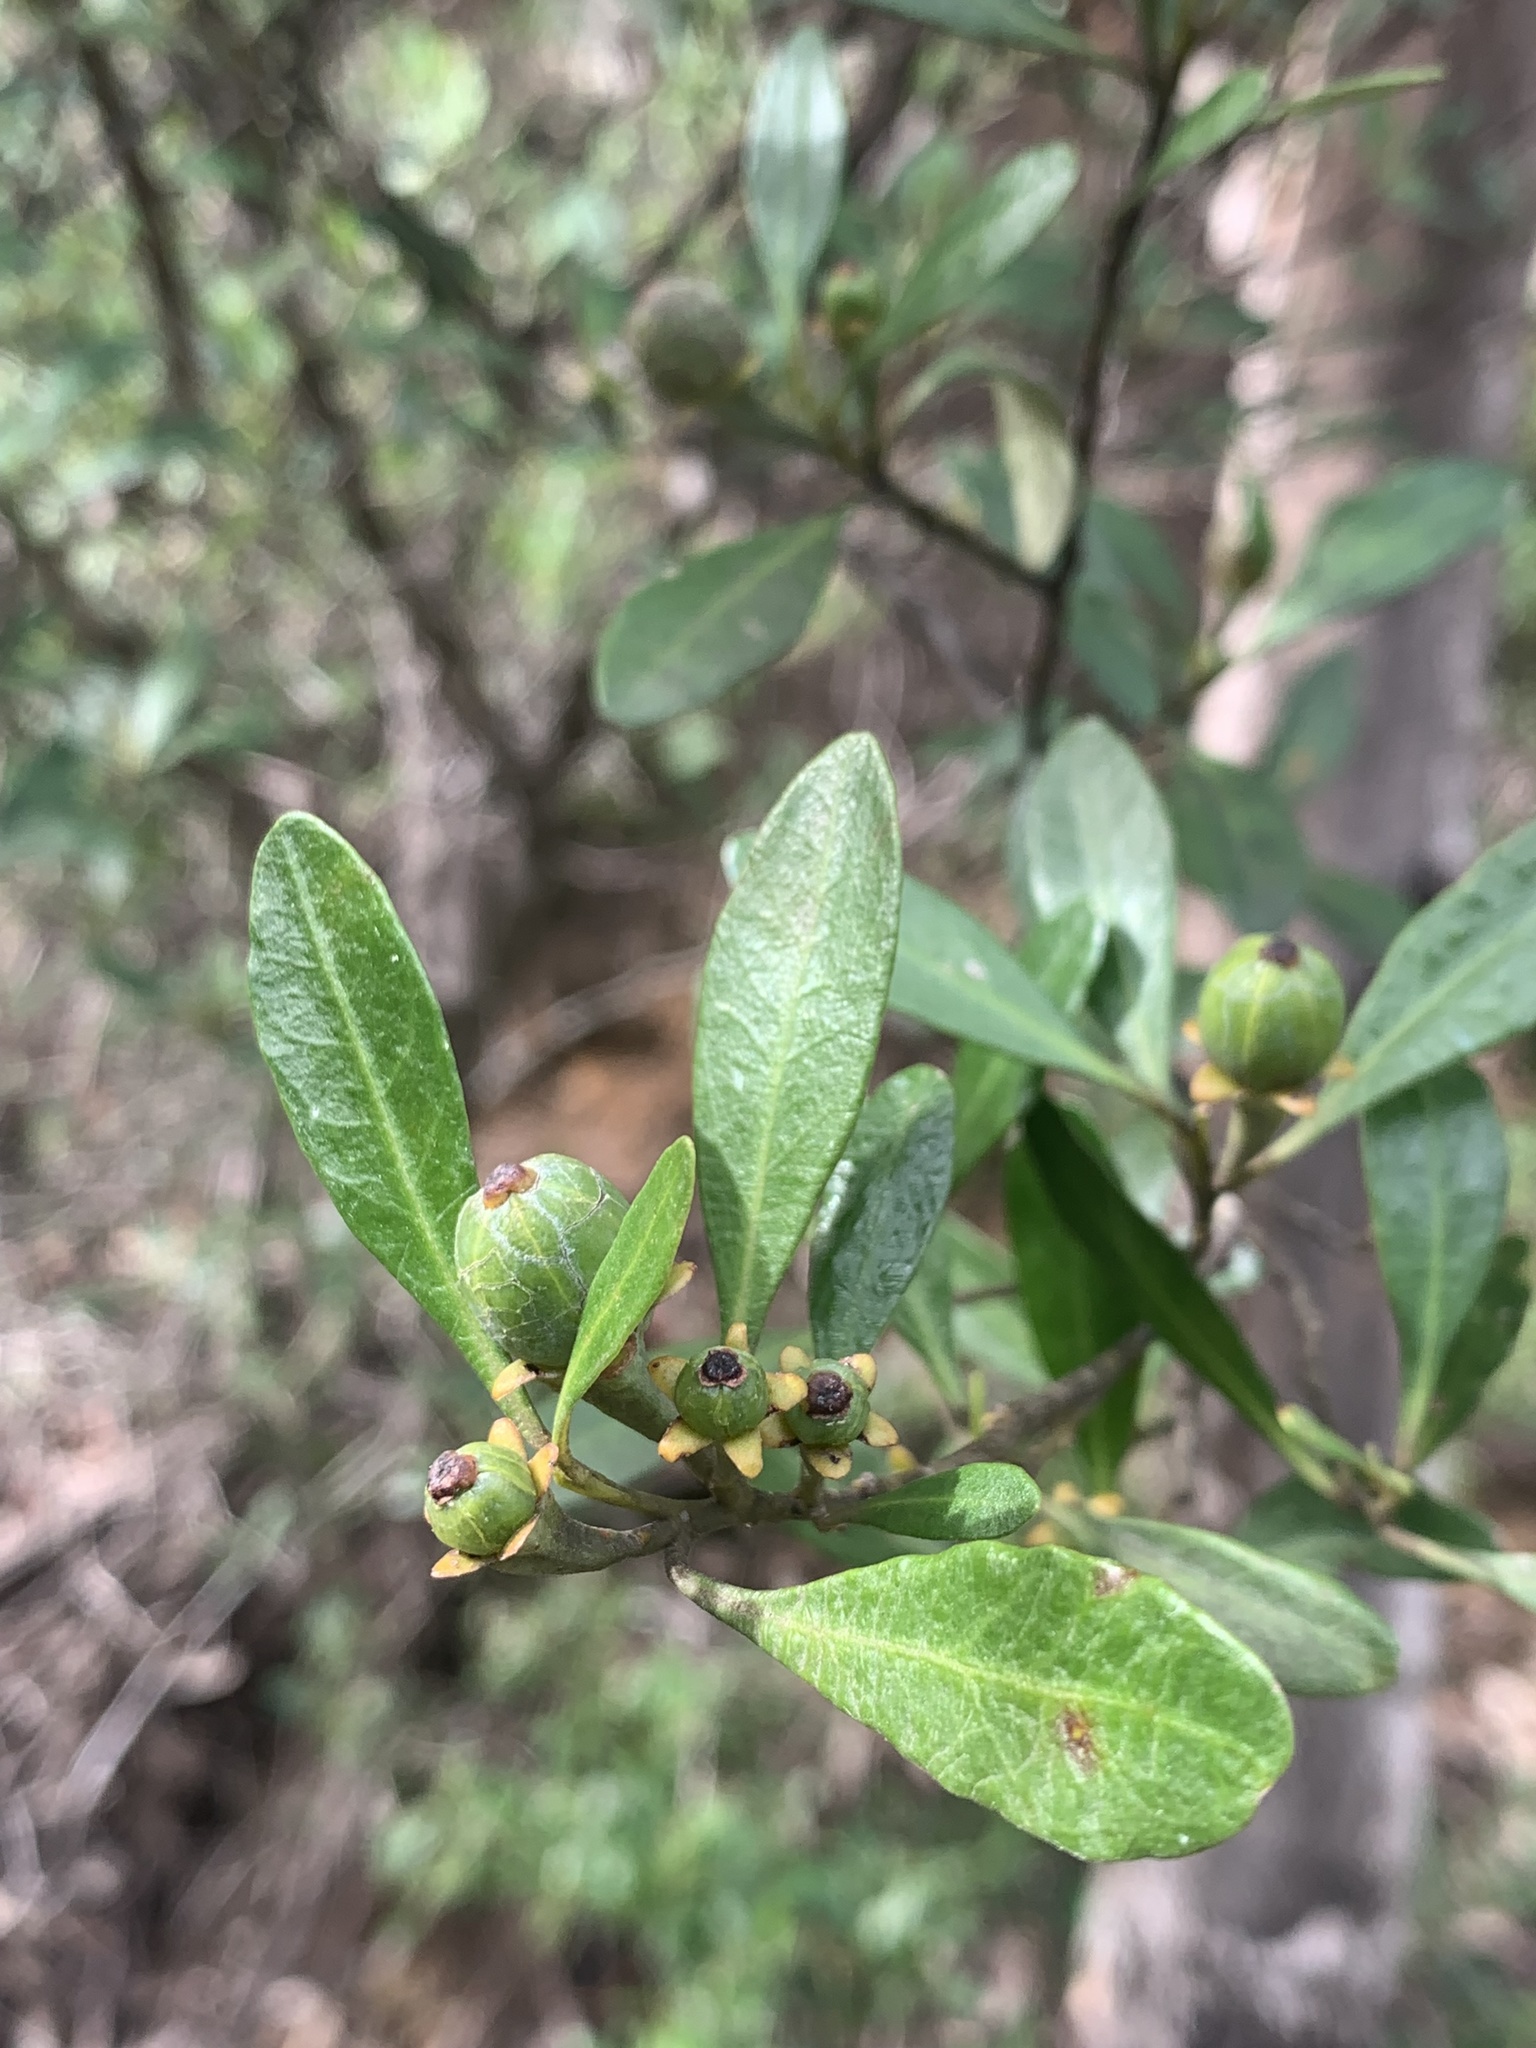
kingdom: Plantae
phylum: Tracheophyta
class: Magnoliopsida
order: Malpighiales
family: Euphorbiaceae
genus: Beyeria
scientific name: Beyeria viscosa
